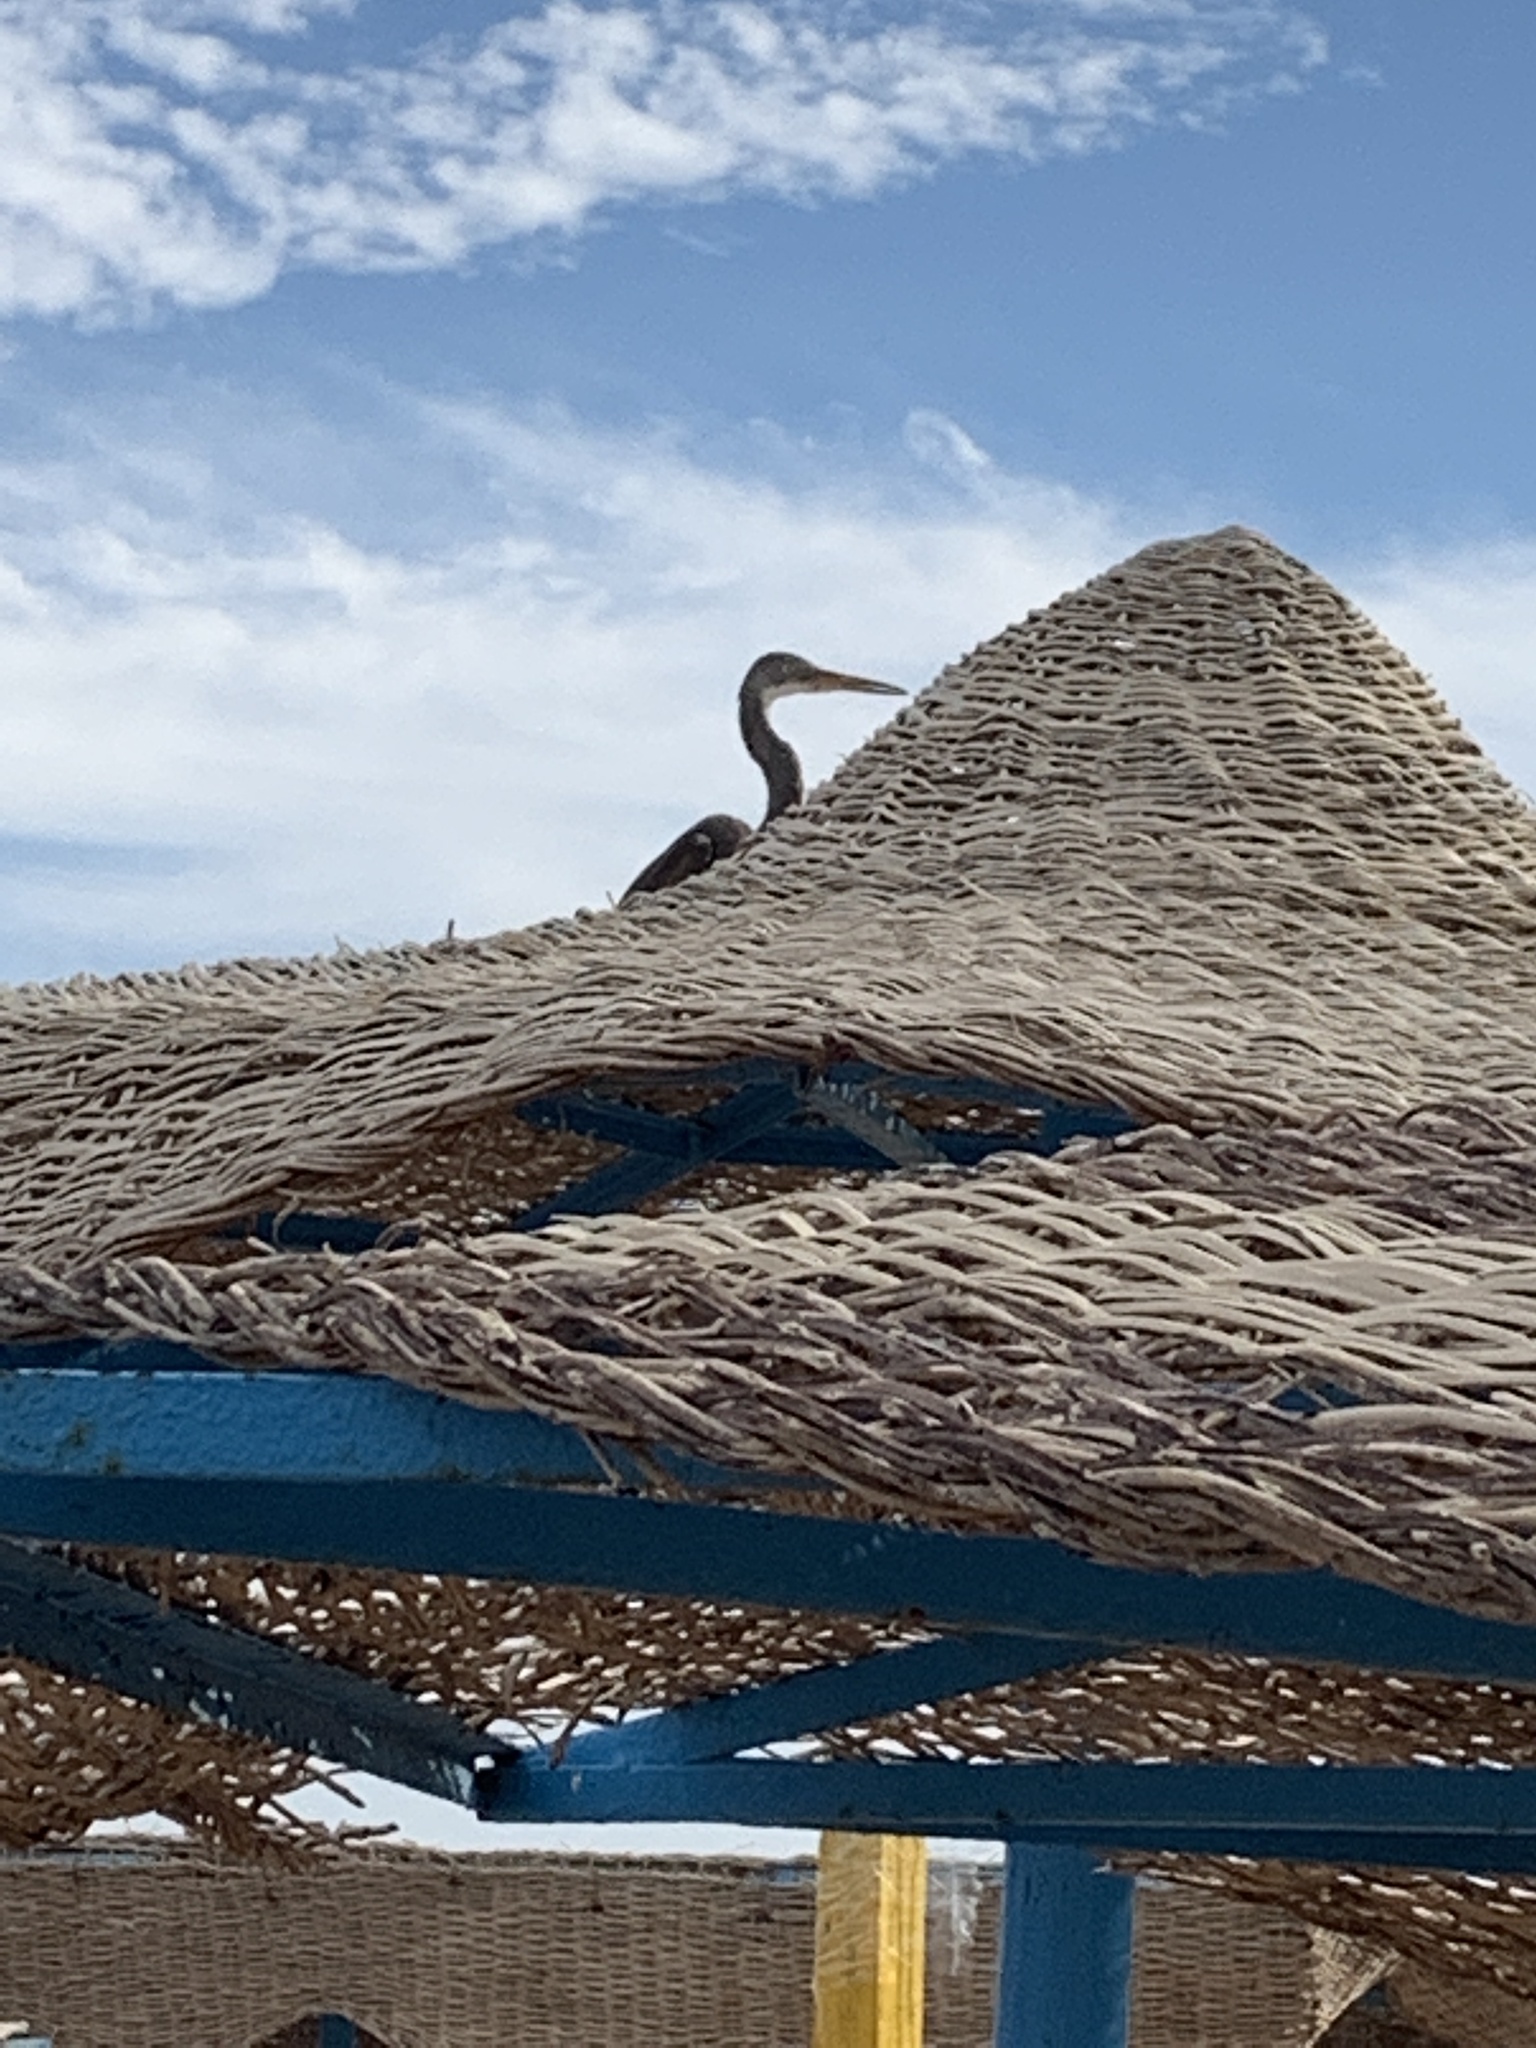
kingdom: Animalia
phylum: Chordata
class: Aves
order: Pelecaniformes
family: Ardeidae
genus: Egretta
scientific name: Egretta gularis
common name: Western reef-heron
